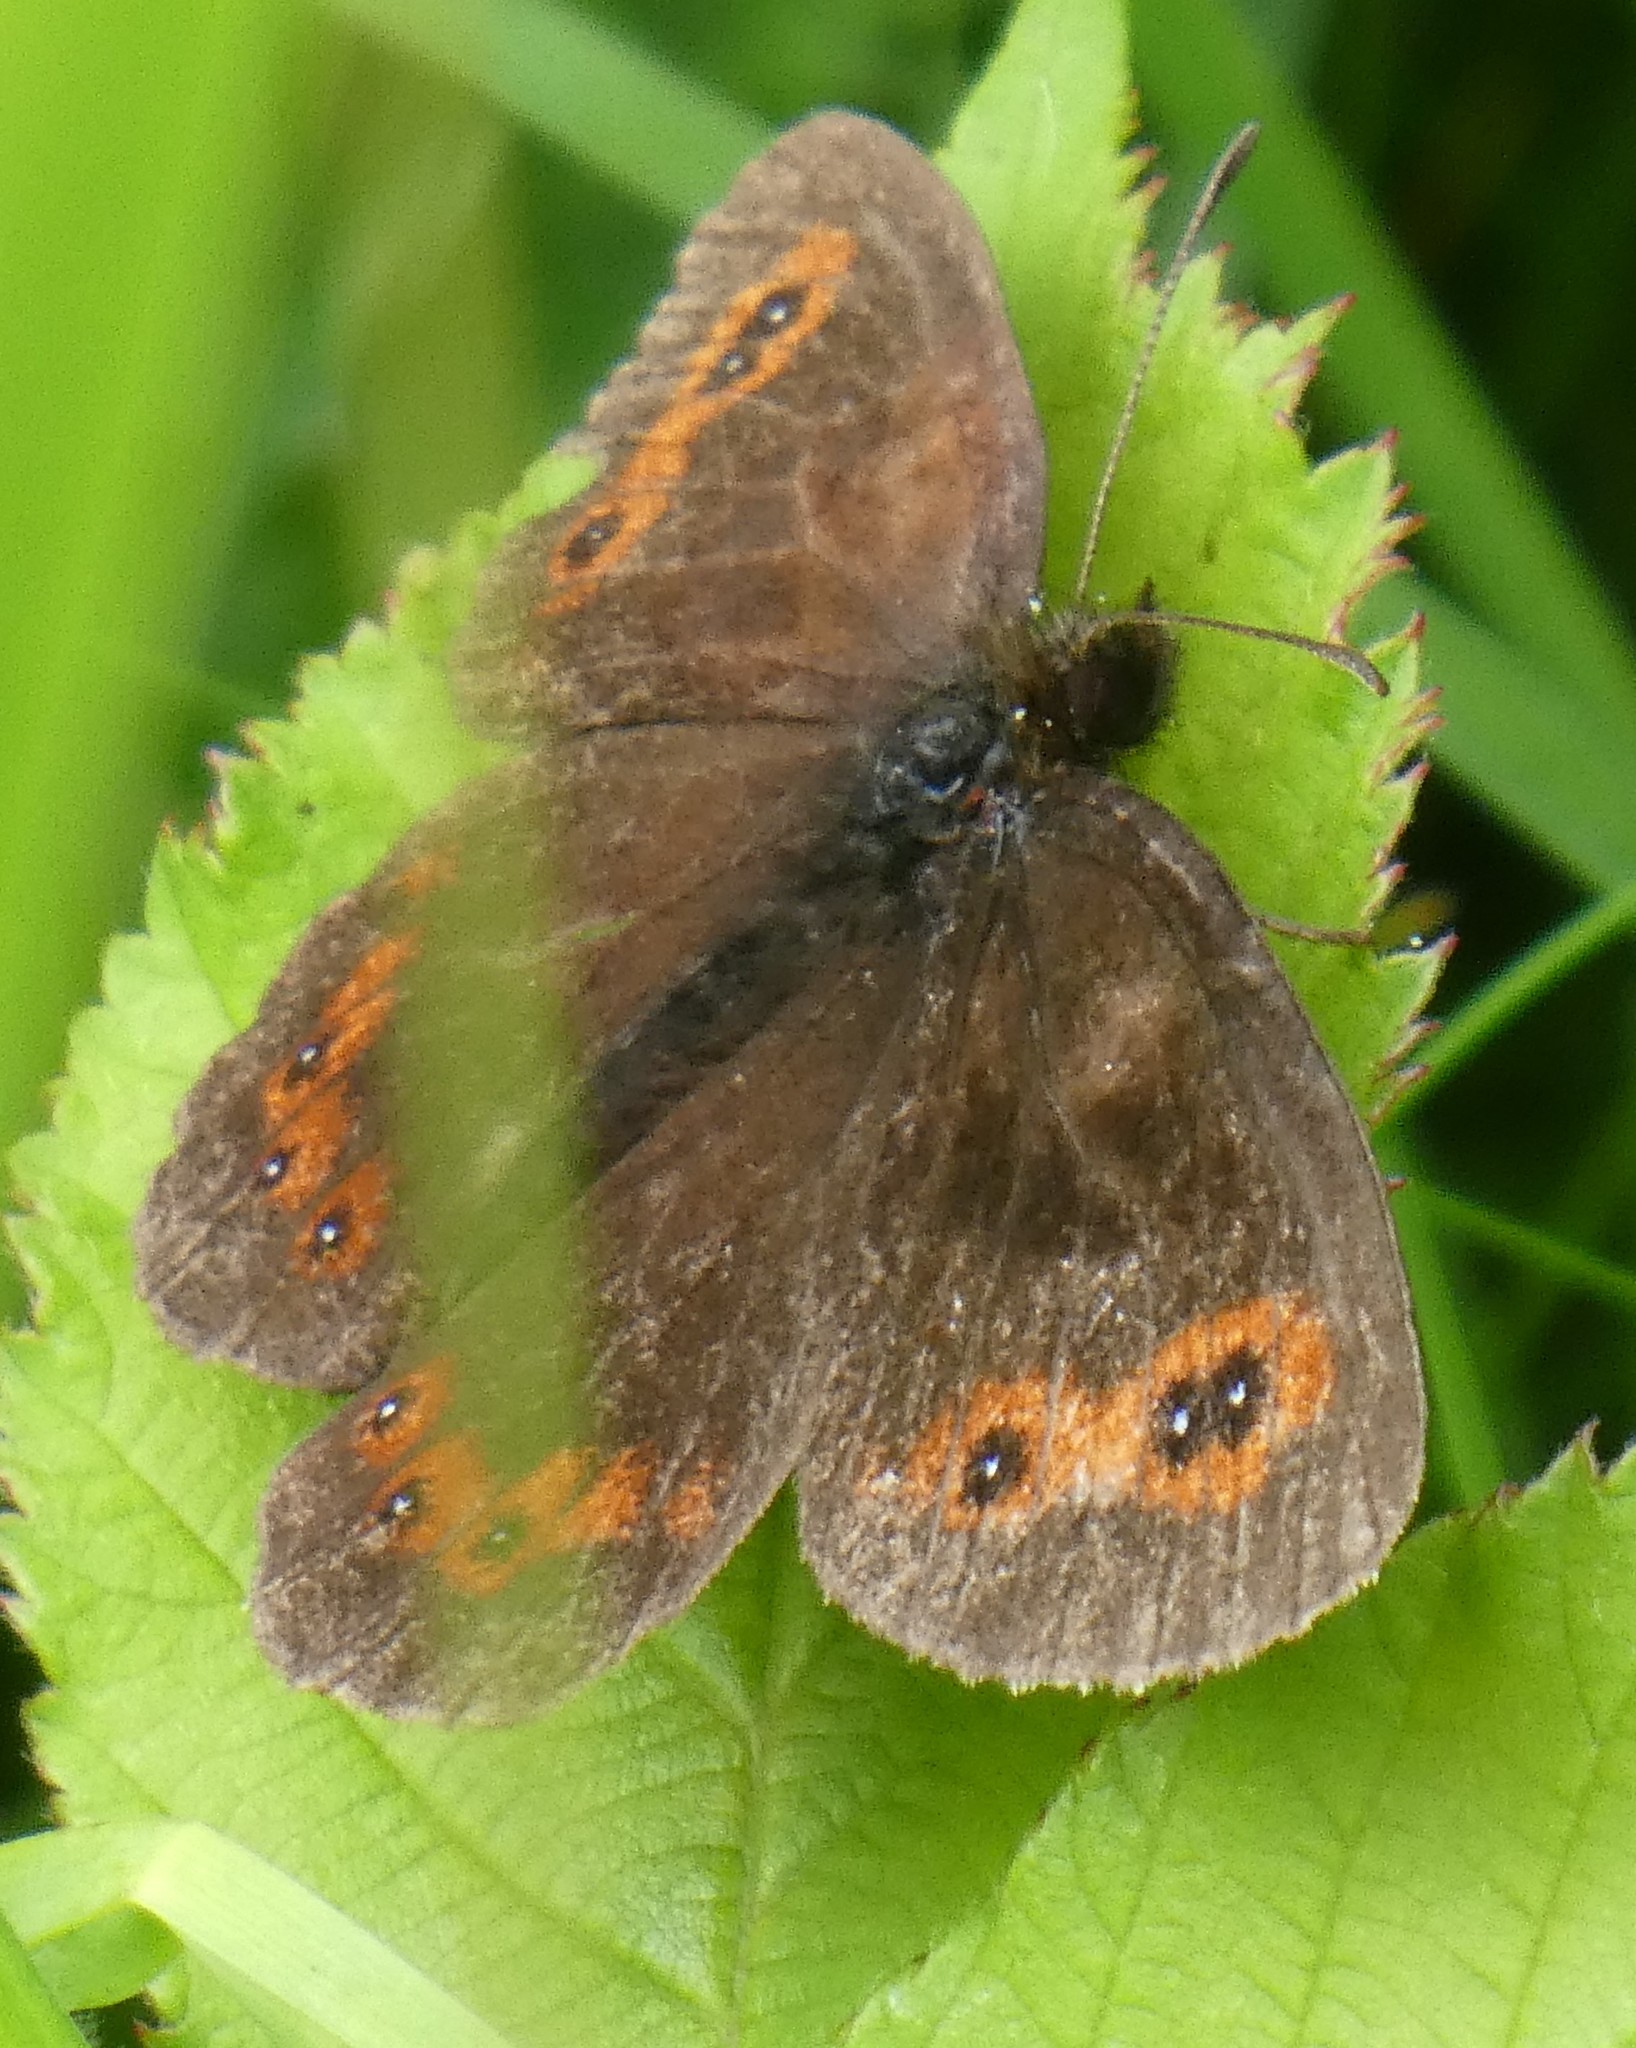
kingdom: Animalia
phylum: Arthropoda
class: Insecta
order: Lepidoptera
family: Nymphalidae
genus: Erebia
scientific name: Erebia aethiops
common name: Scotch argus
